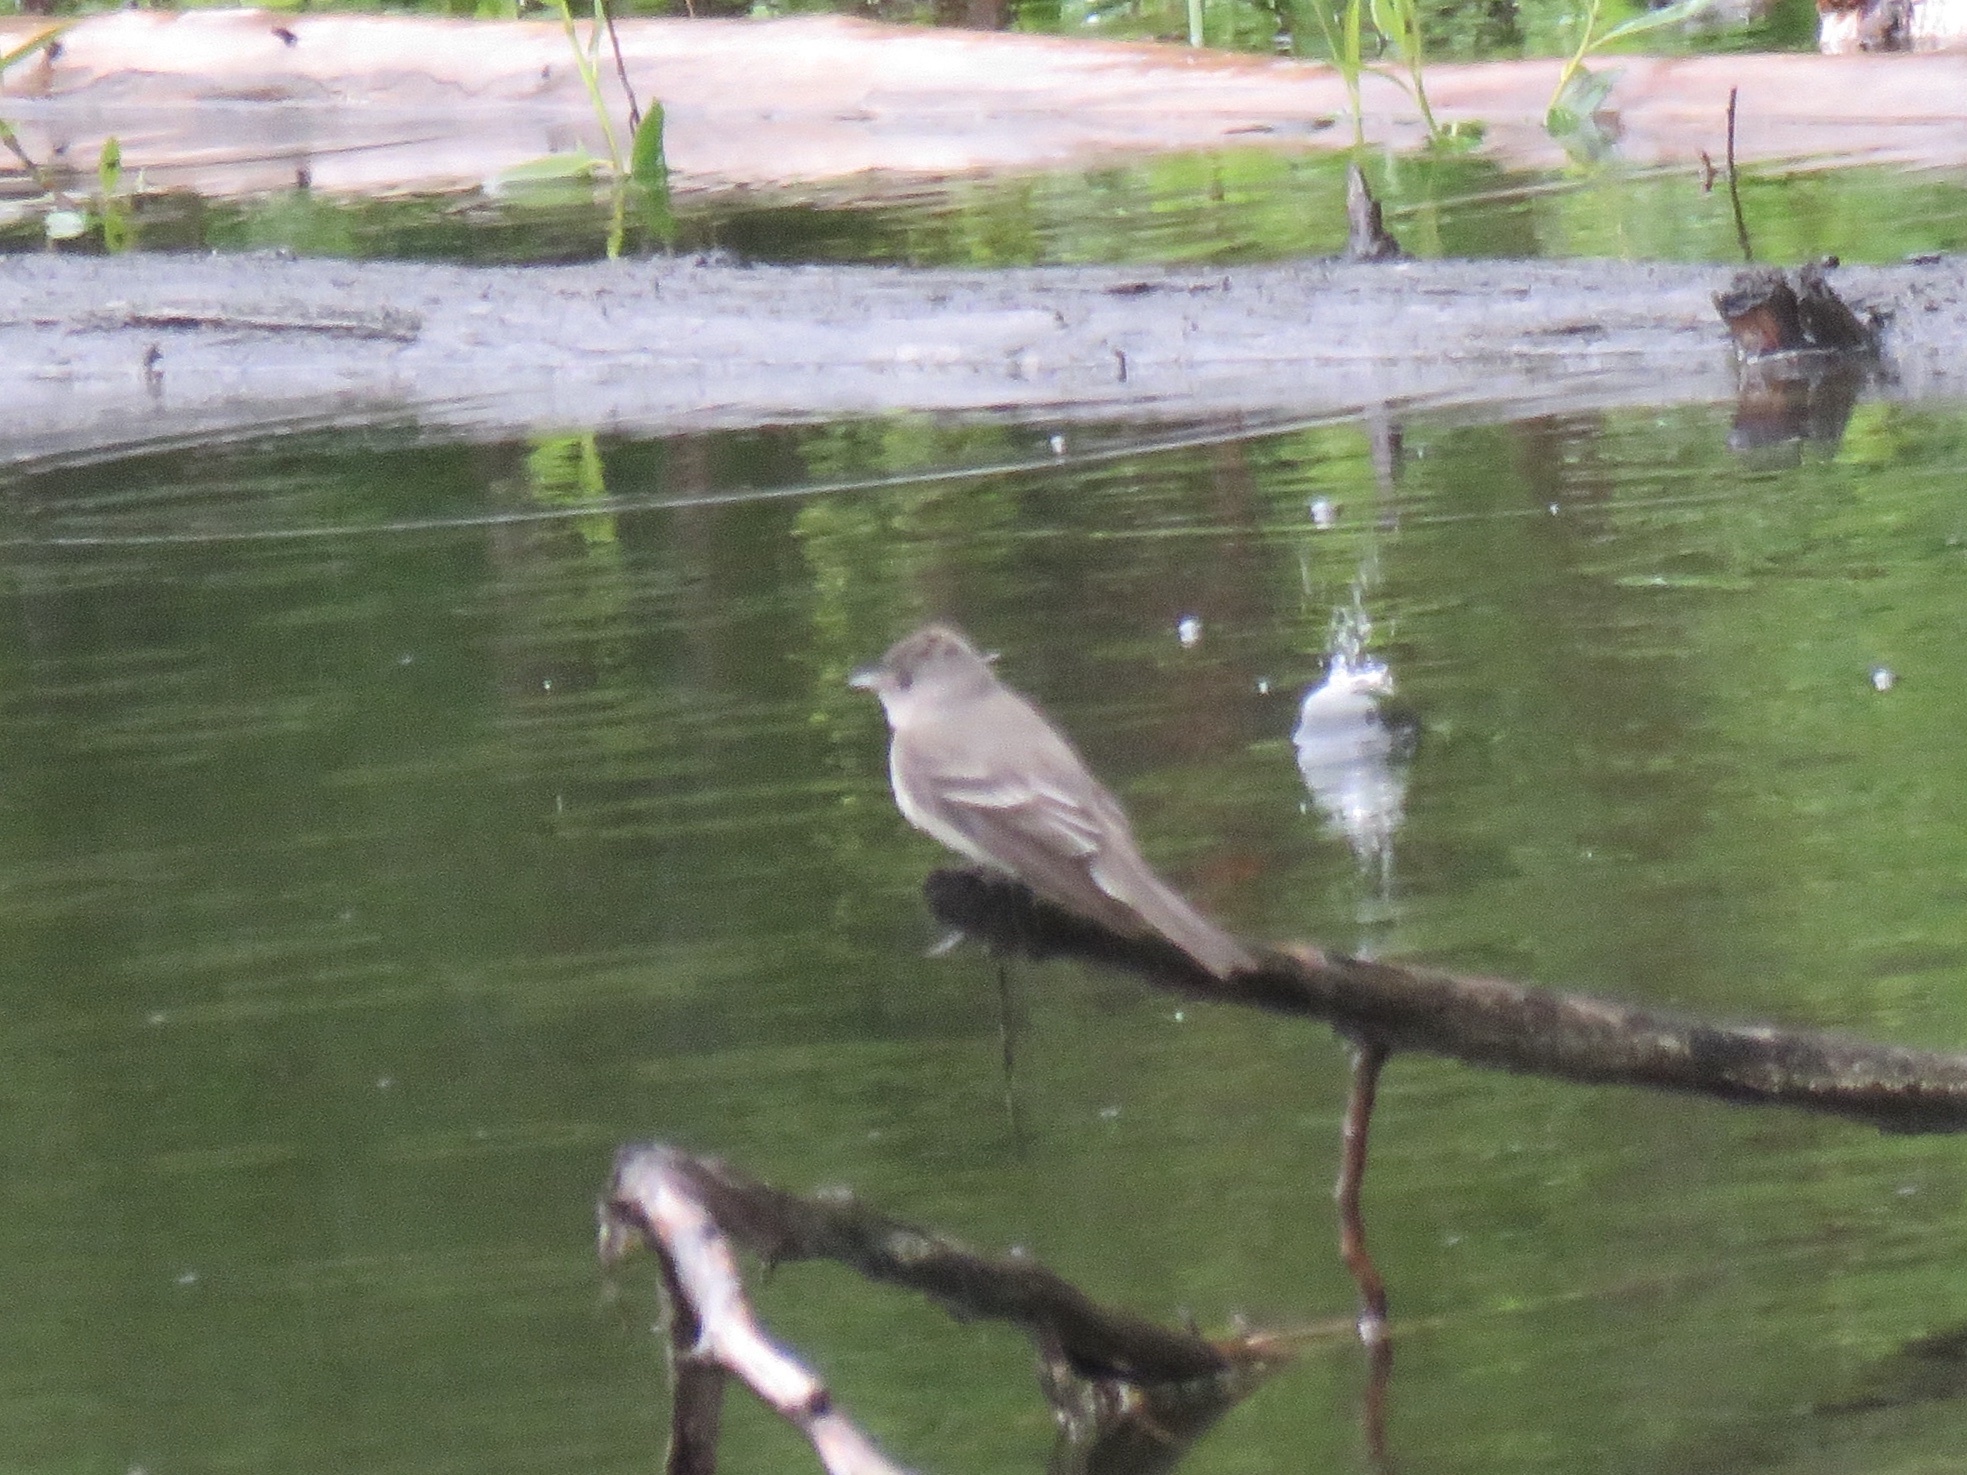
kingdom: Animalia
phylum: Chordata
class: Aves
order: Passeriformes
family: Tyrannidae
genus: Contopus
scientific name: Contopus sordidulus
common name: Western wood-pewee
